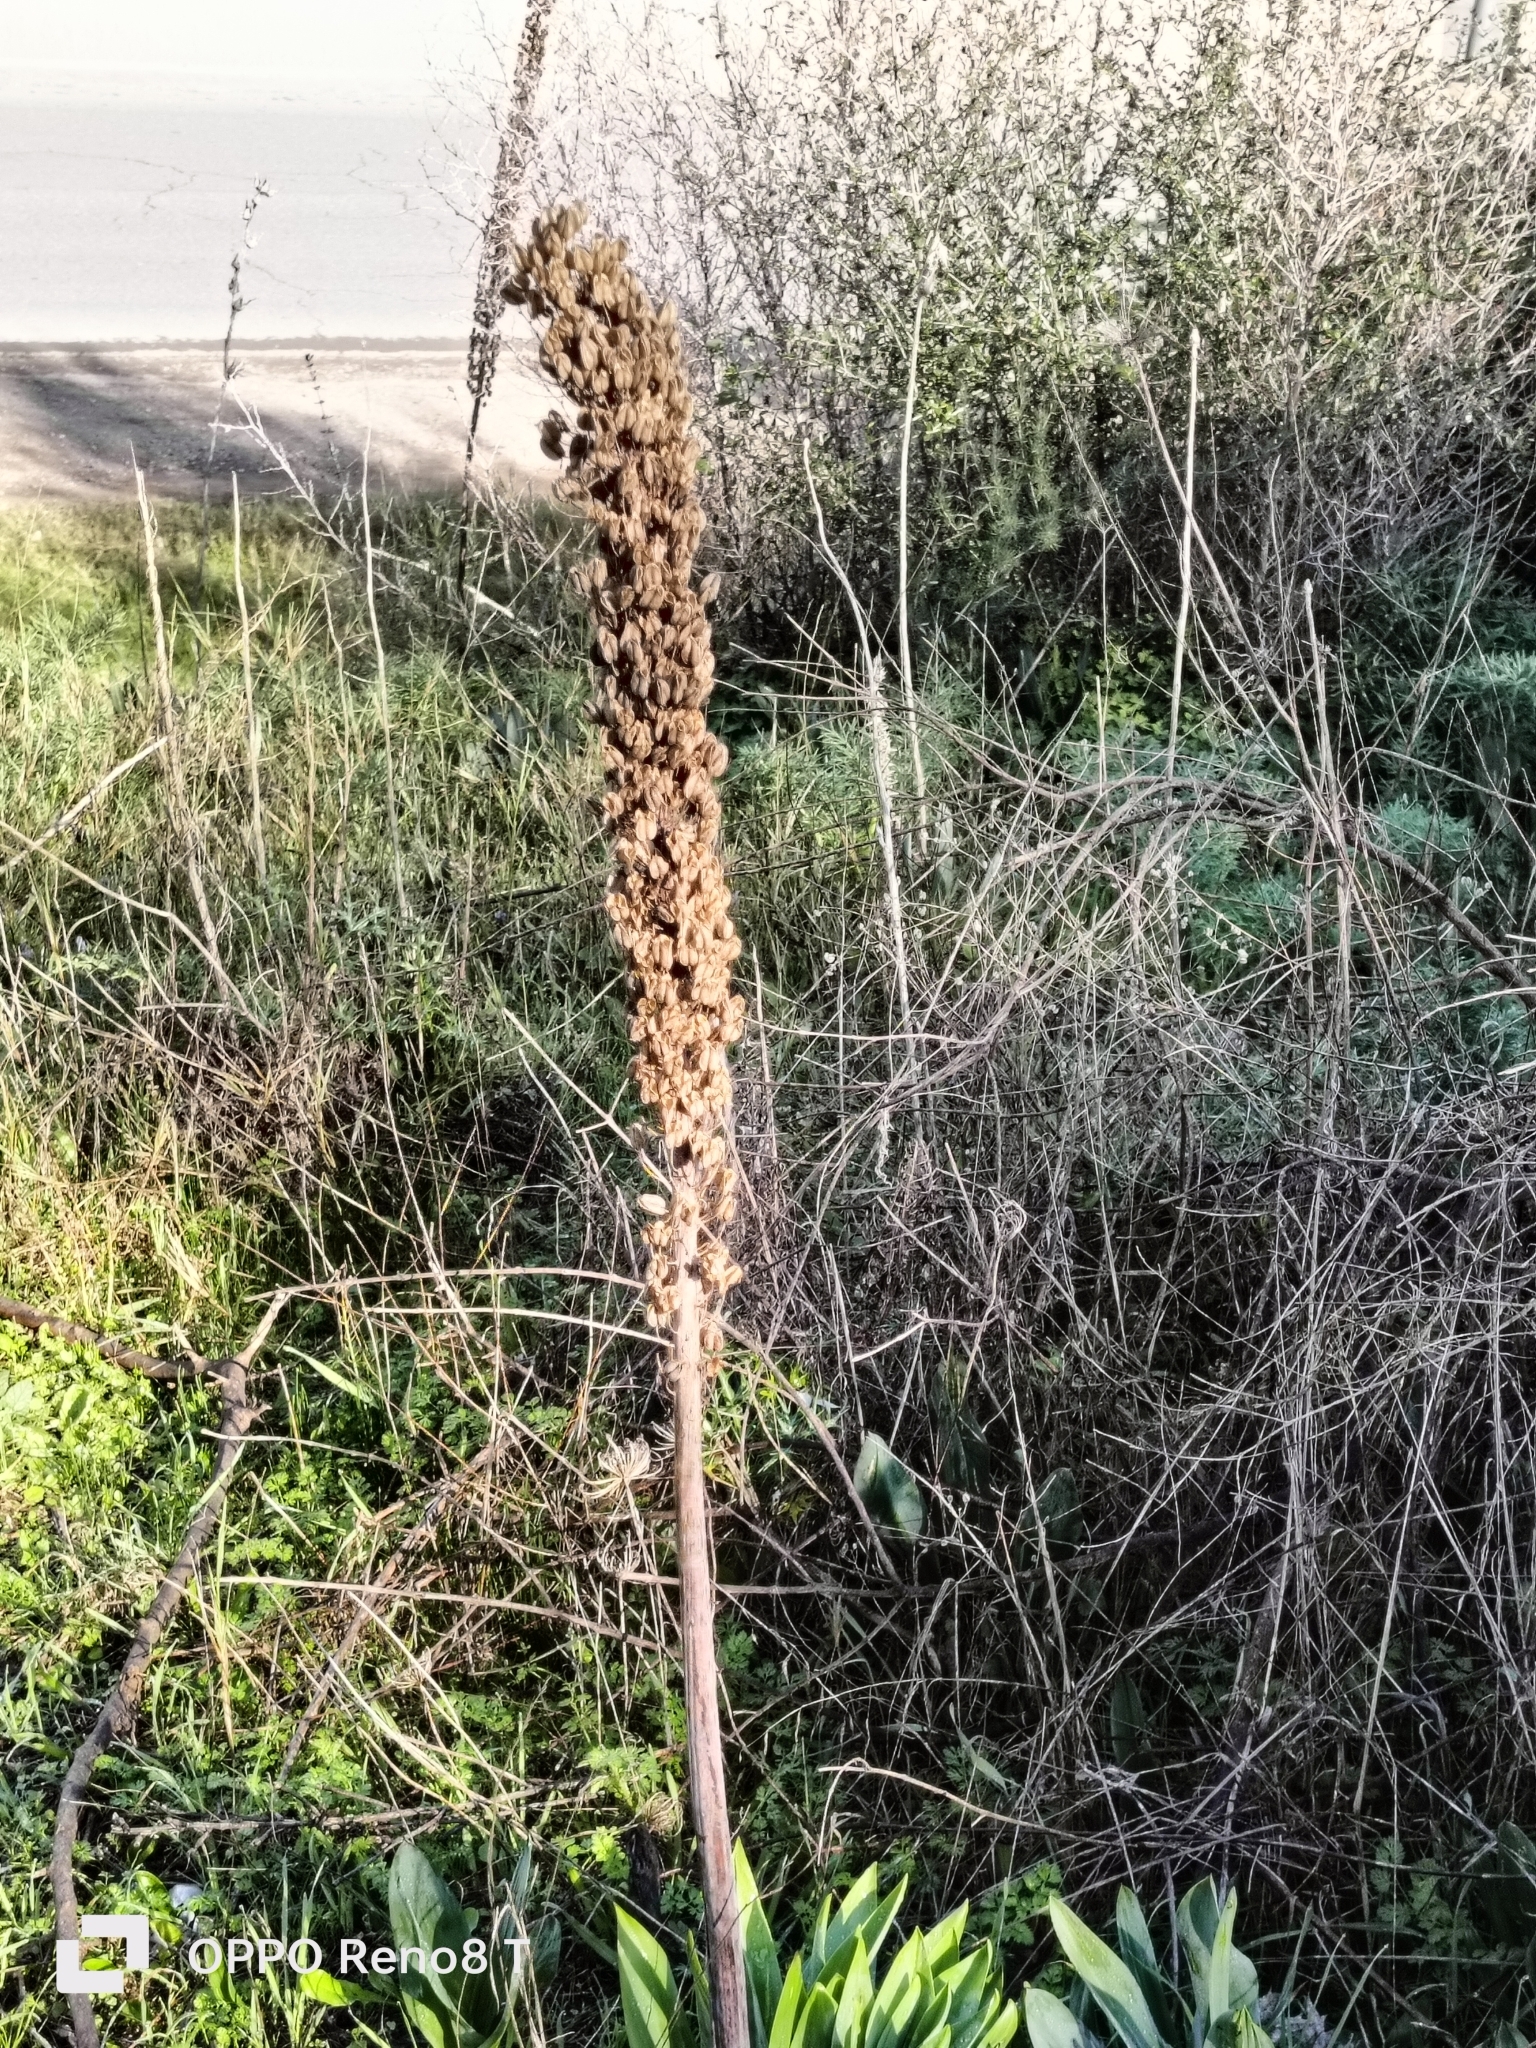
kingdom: Plantae
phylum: Tracheophyta
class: Liliopsida
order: Asparagales
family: Asparagaceae
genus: Drimia
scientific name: Drimia numidica
